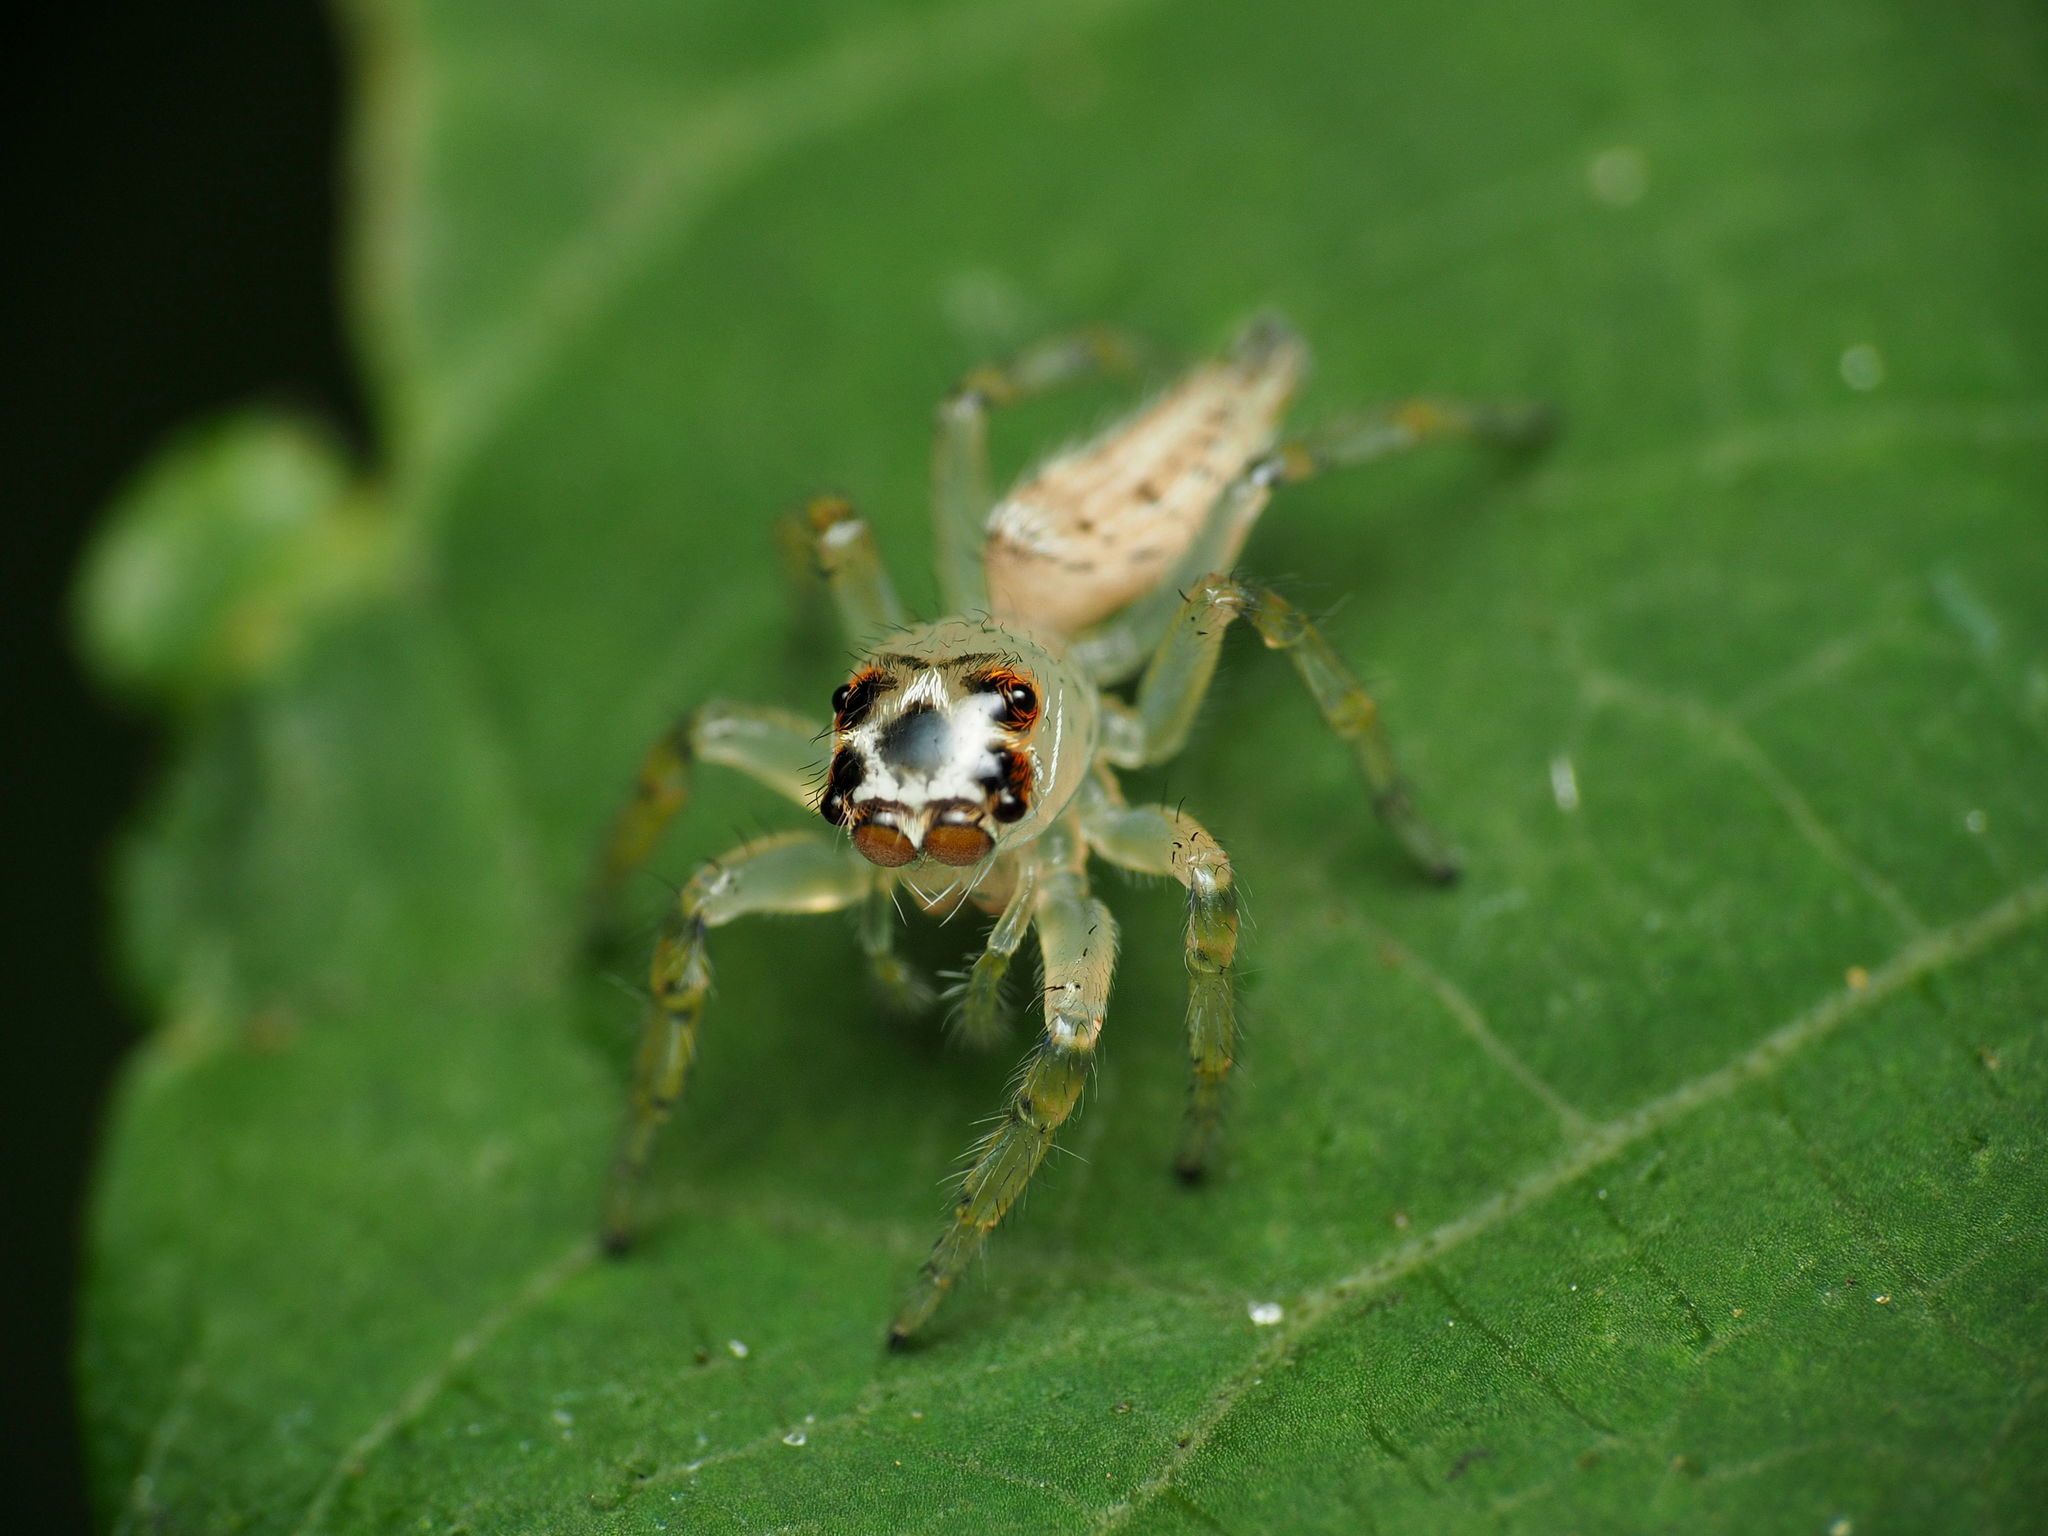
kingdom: Animalia
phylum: Arthropoda
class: Arachnida
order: Araneae
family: Salticidae
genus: Colonus
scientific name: Colonus sylvanus
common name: Jumping spiders
